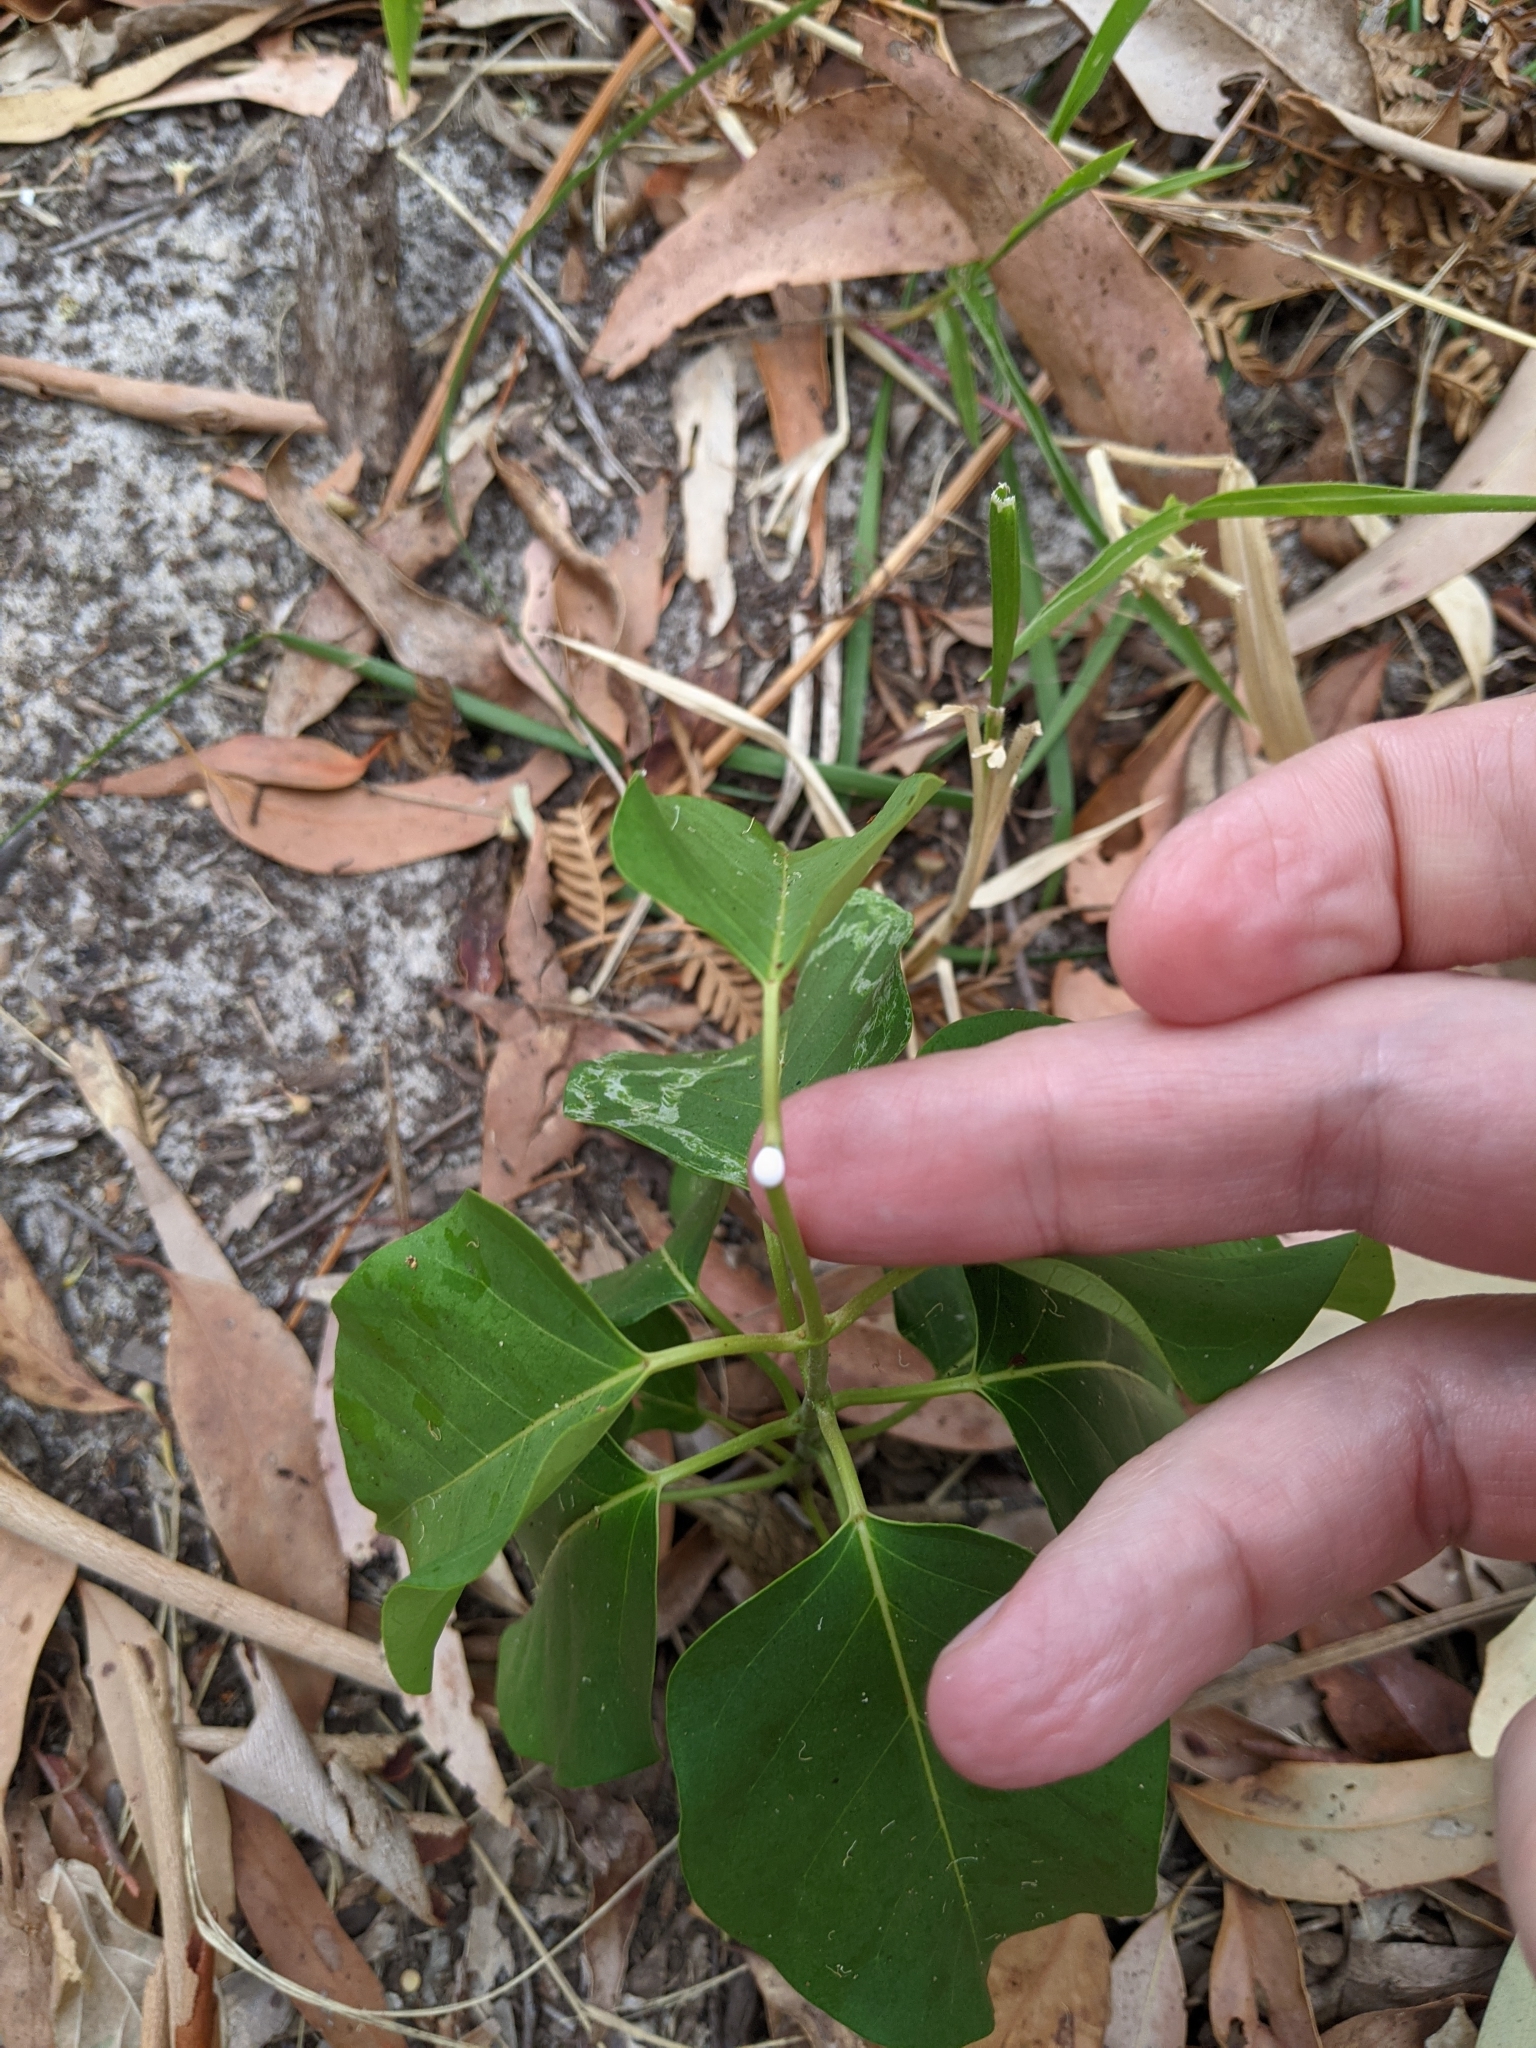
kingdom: Plantae
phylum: Tracheophyta
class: Magnoliopsida
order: Gentianales
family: Apocynaceae
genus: Leichhardtia
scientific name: Leichhardtia rostrata
